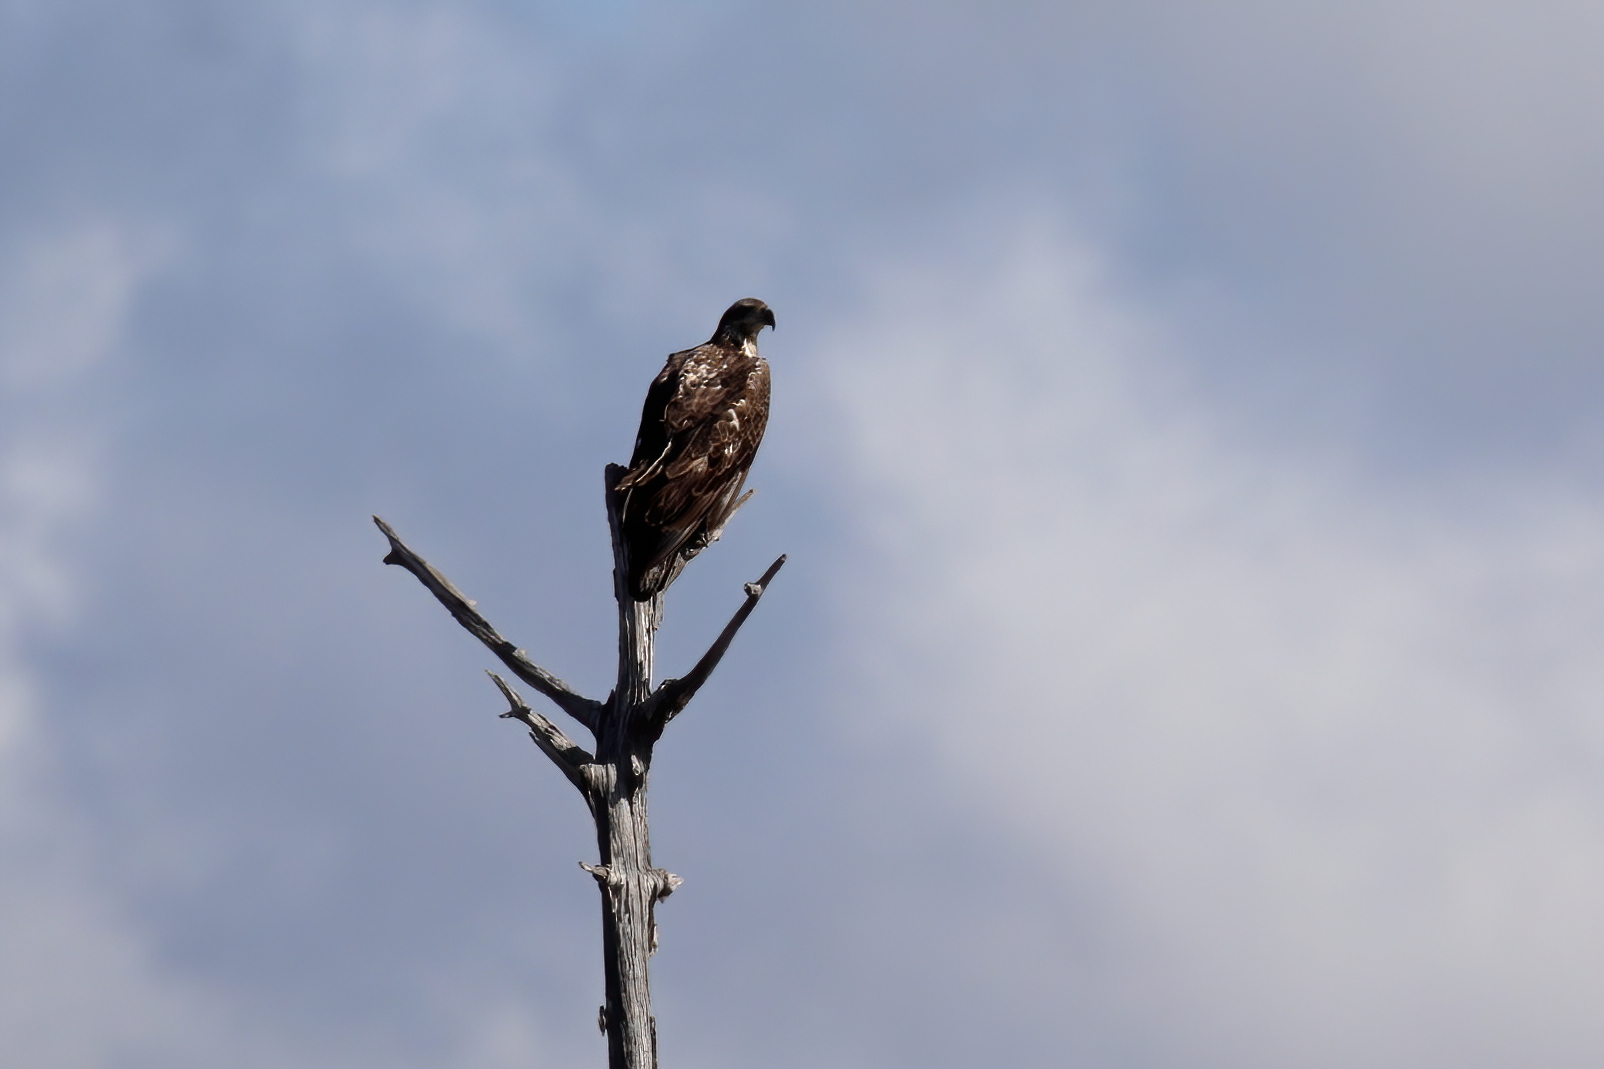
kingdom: Animalia
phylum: Chordata
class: Aves
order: Accipitriformes
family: Accipitridae
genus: Haliaeetus
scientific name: Haliaeetus leucocephalus
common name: Bald eagle
